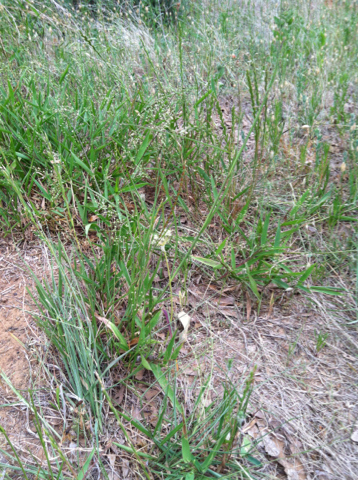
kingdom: Plantae
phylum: Tracheophyta
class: Liliopsida
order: Poales
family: Poaceae
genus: Rottboellia
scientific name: Rottboellia campestris
